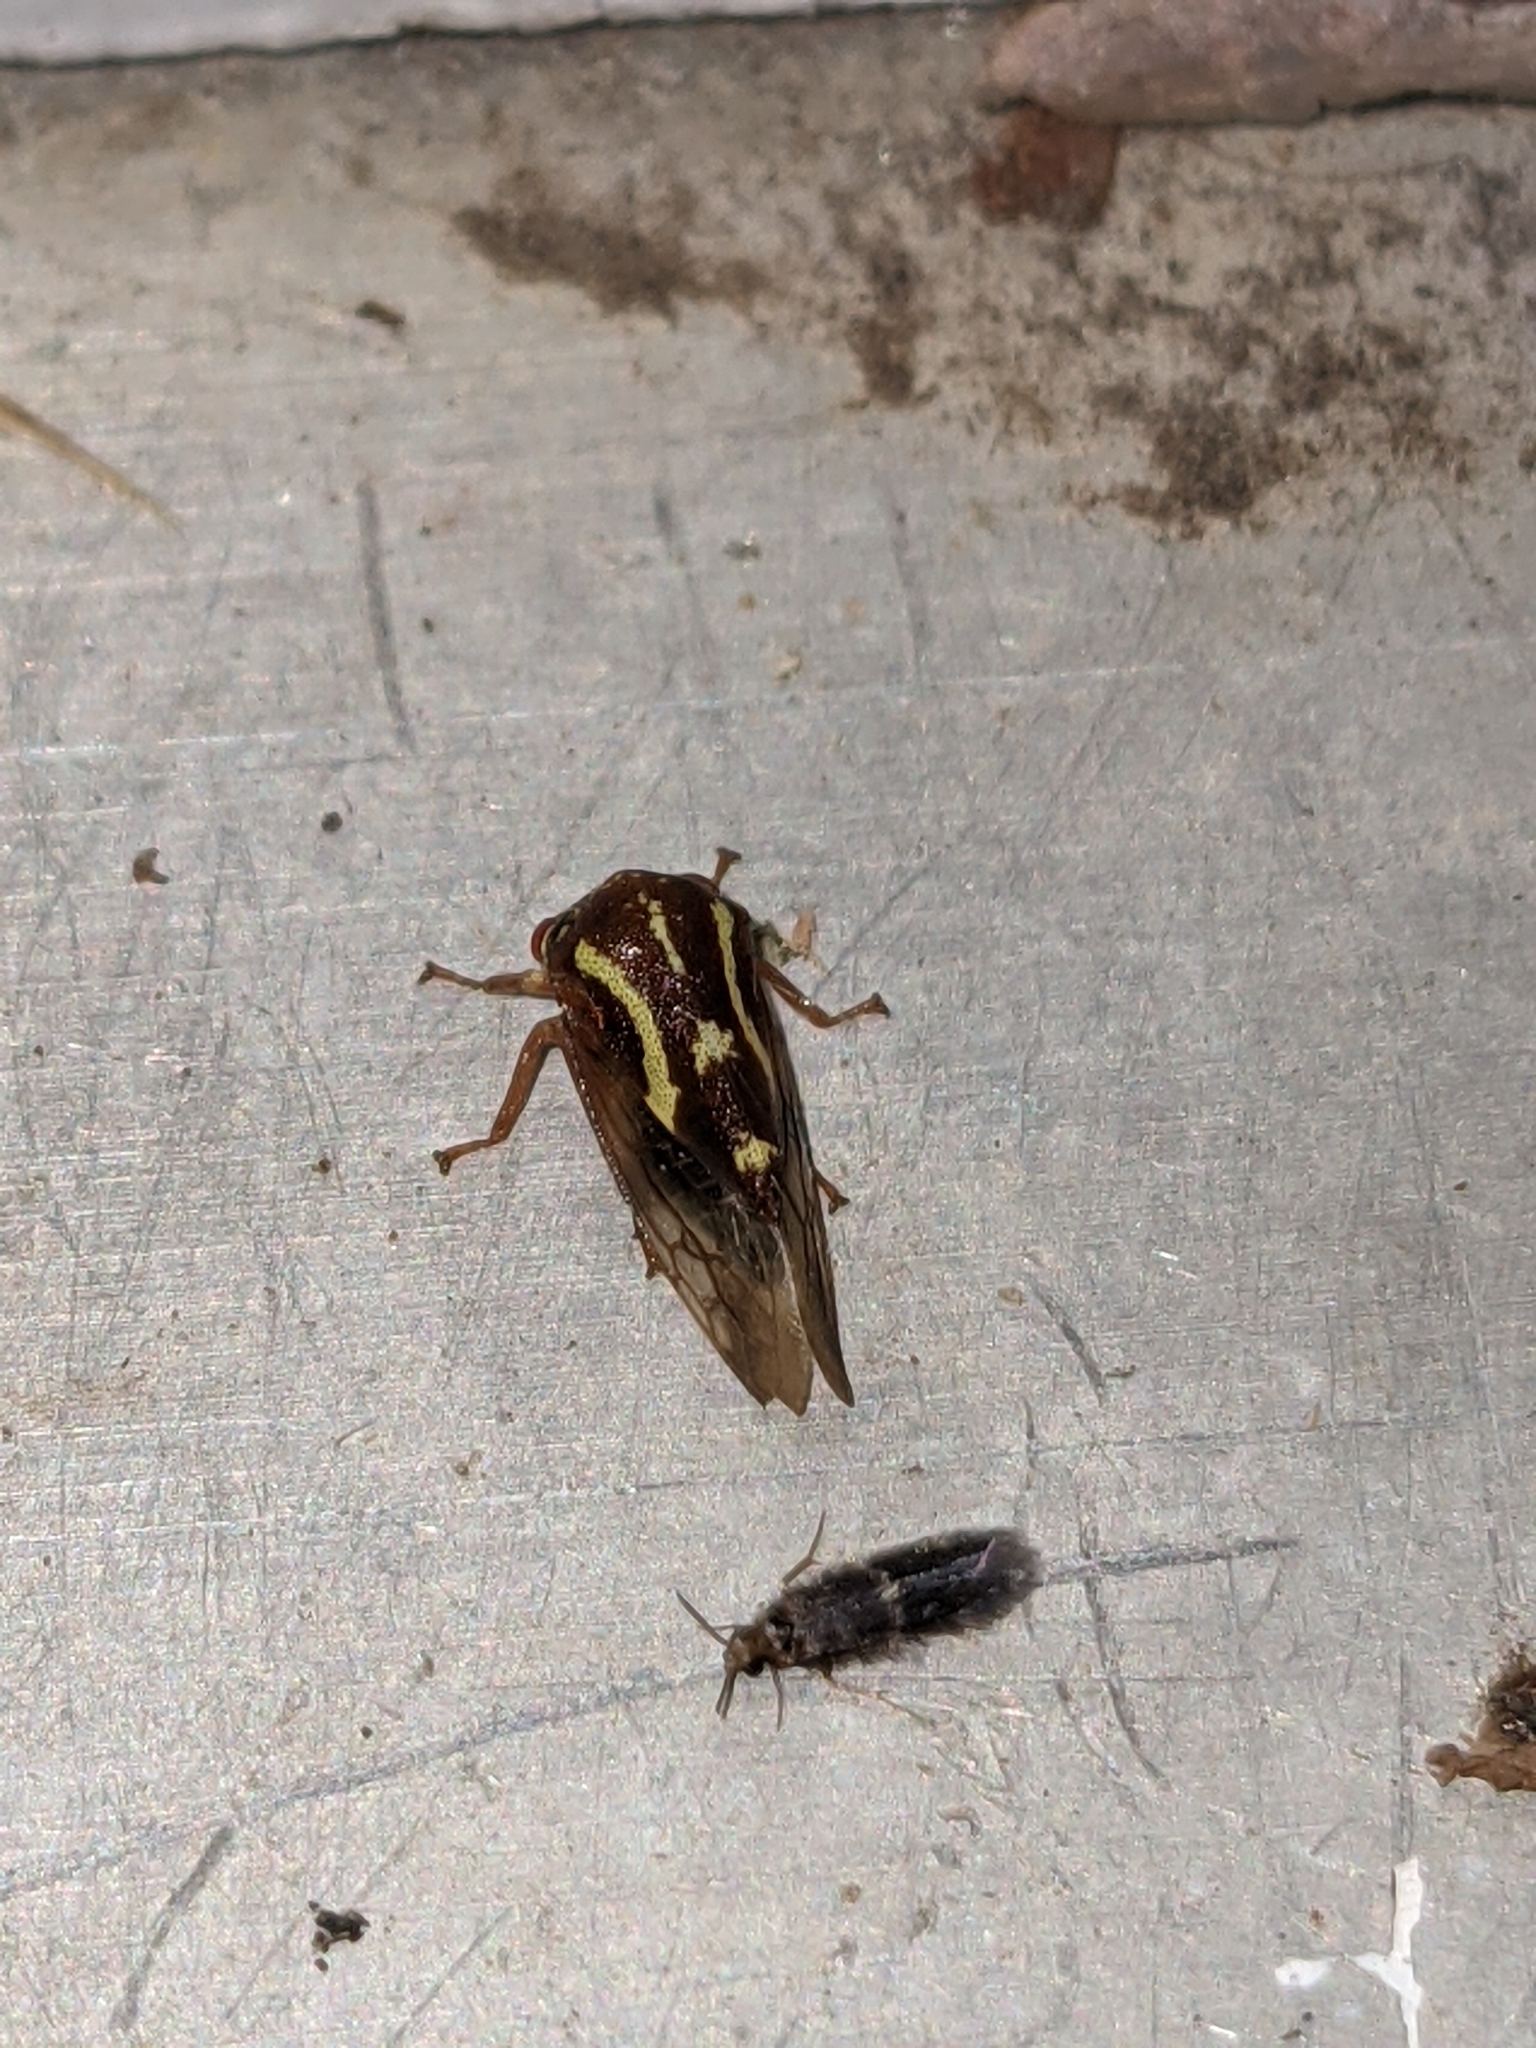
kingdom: Animalia
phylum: Arthropoda
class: Insecta
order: Hemiptera
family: Membracidae
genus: Ophiderma
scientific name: Ophiderma flava
